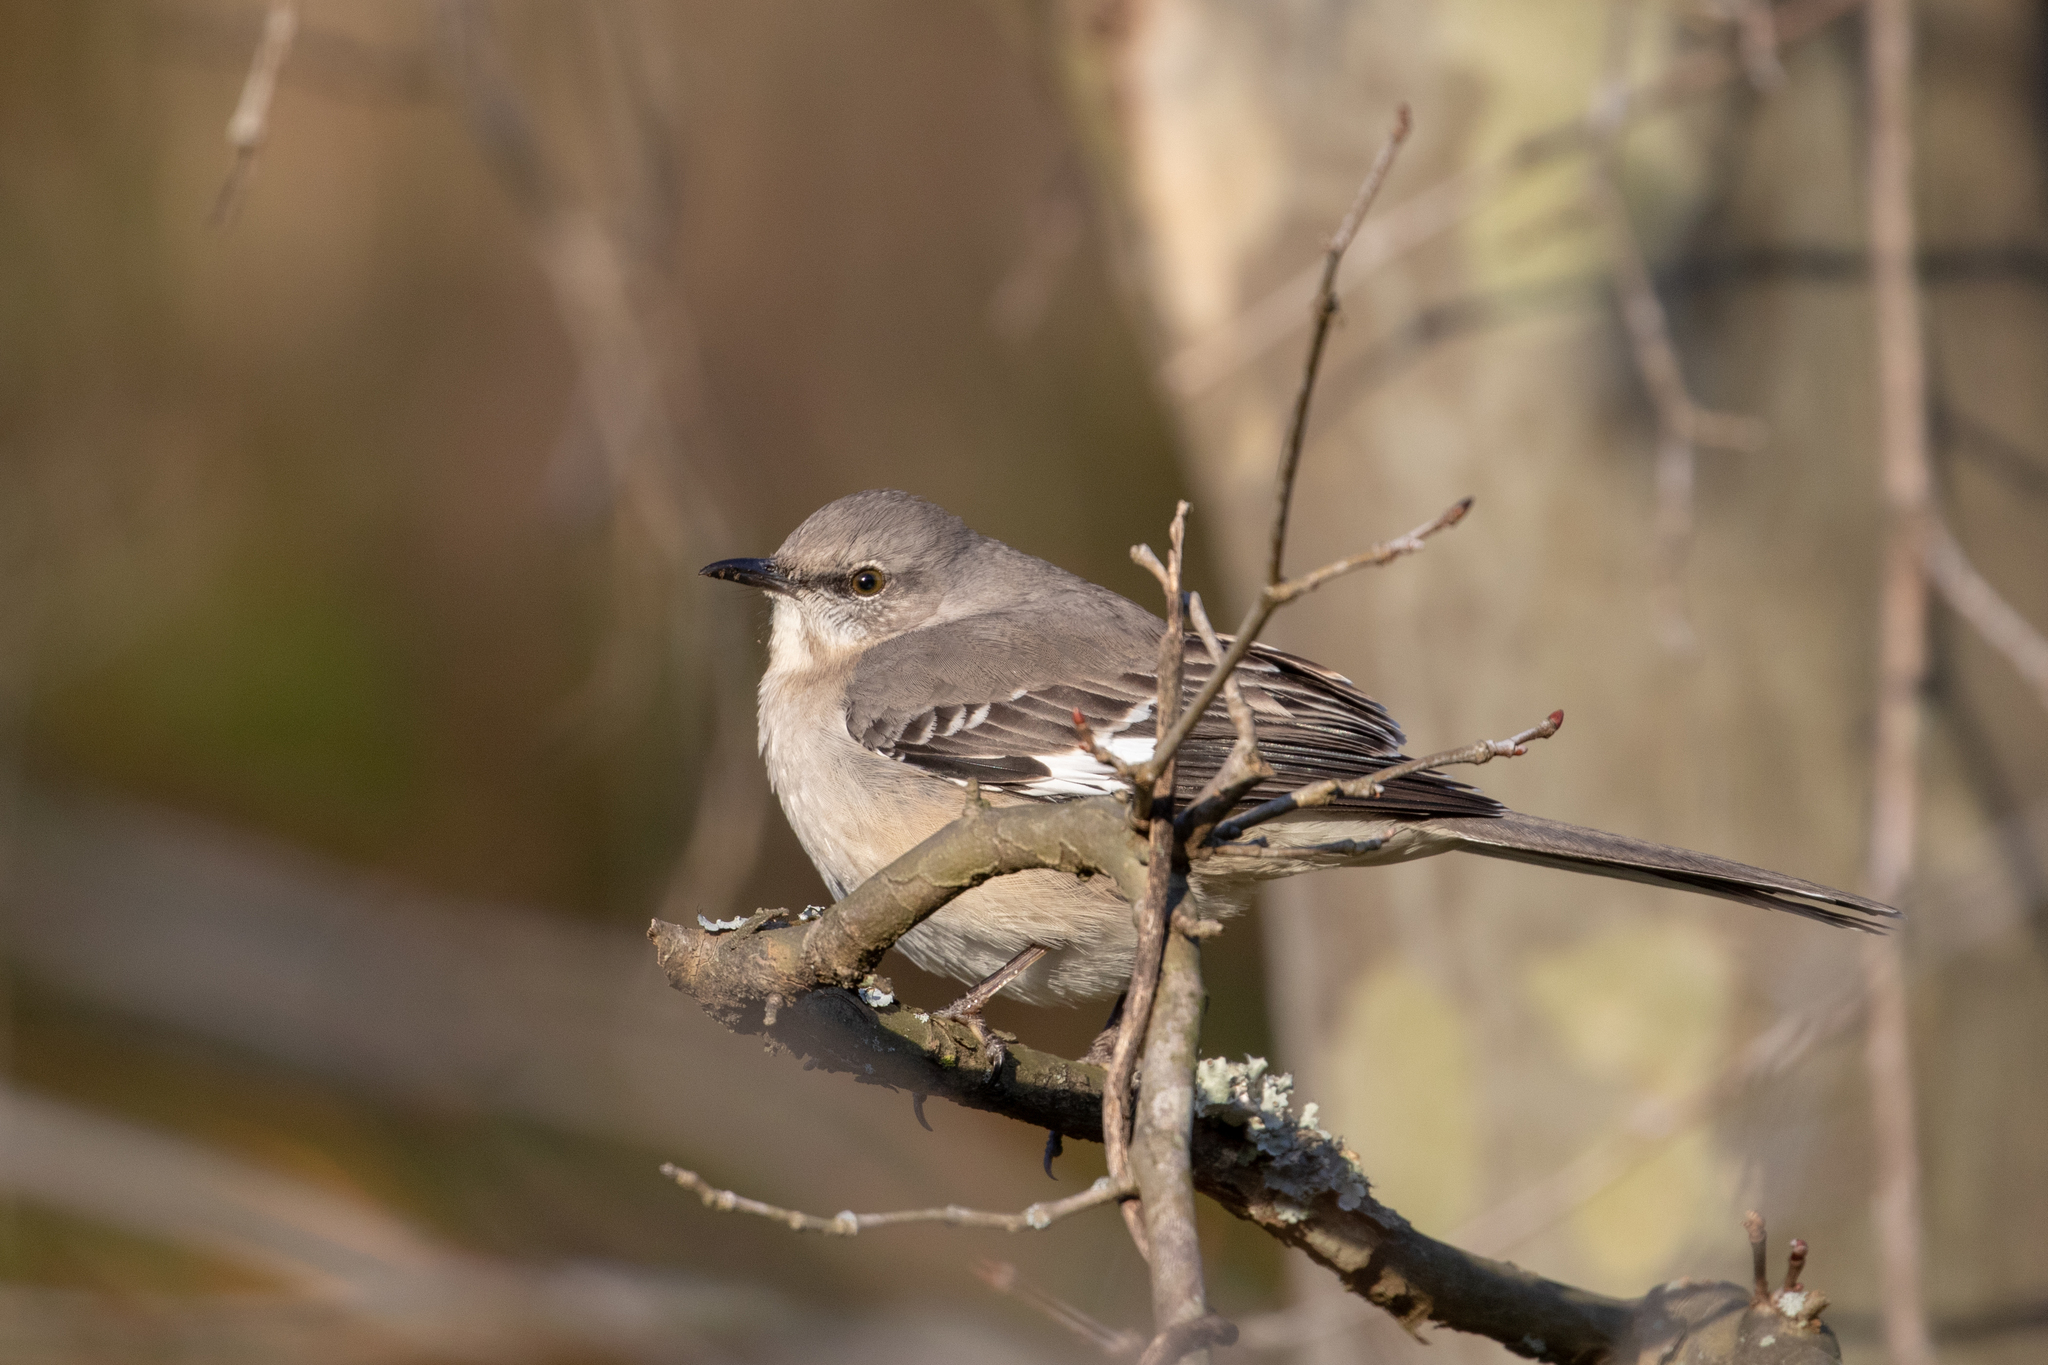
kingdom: Animalia
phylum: Chordata
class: Aves
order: Passeriformes
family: Mimidae
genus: Mimus
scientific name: Mimus polyglottos
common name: Northern mockingbird
